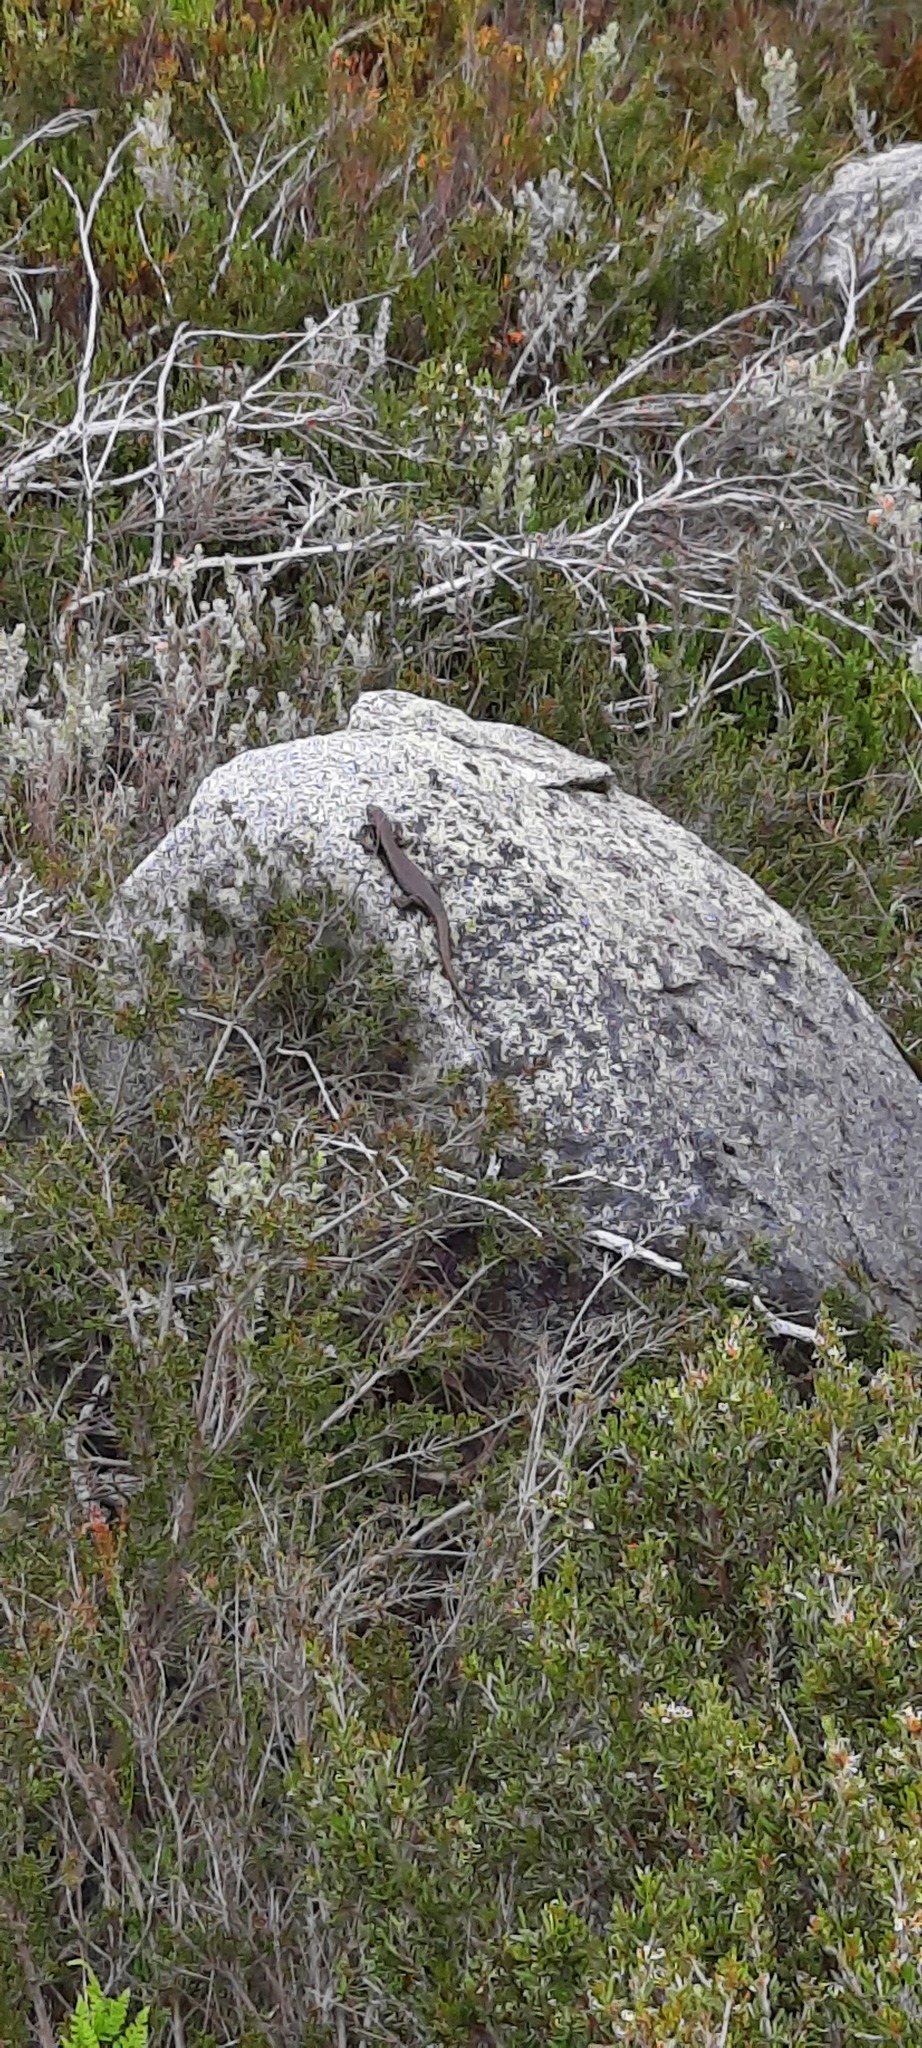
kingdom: Animalia
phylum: Chordata
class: Squamata
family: Scincidae
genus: Eulamprus
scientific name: Eulamprus tympanum
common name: Cool-temperate water-skink
